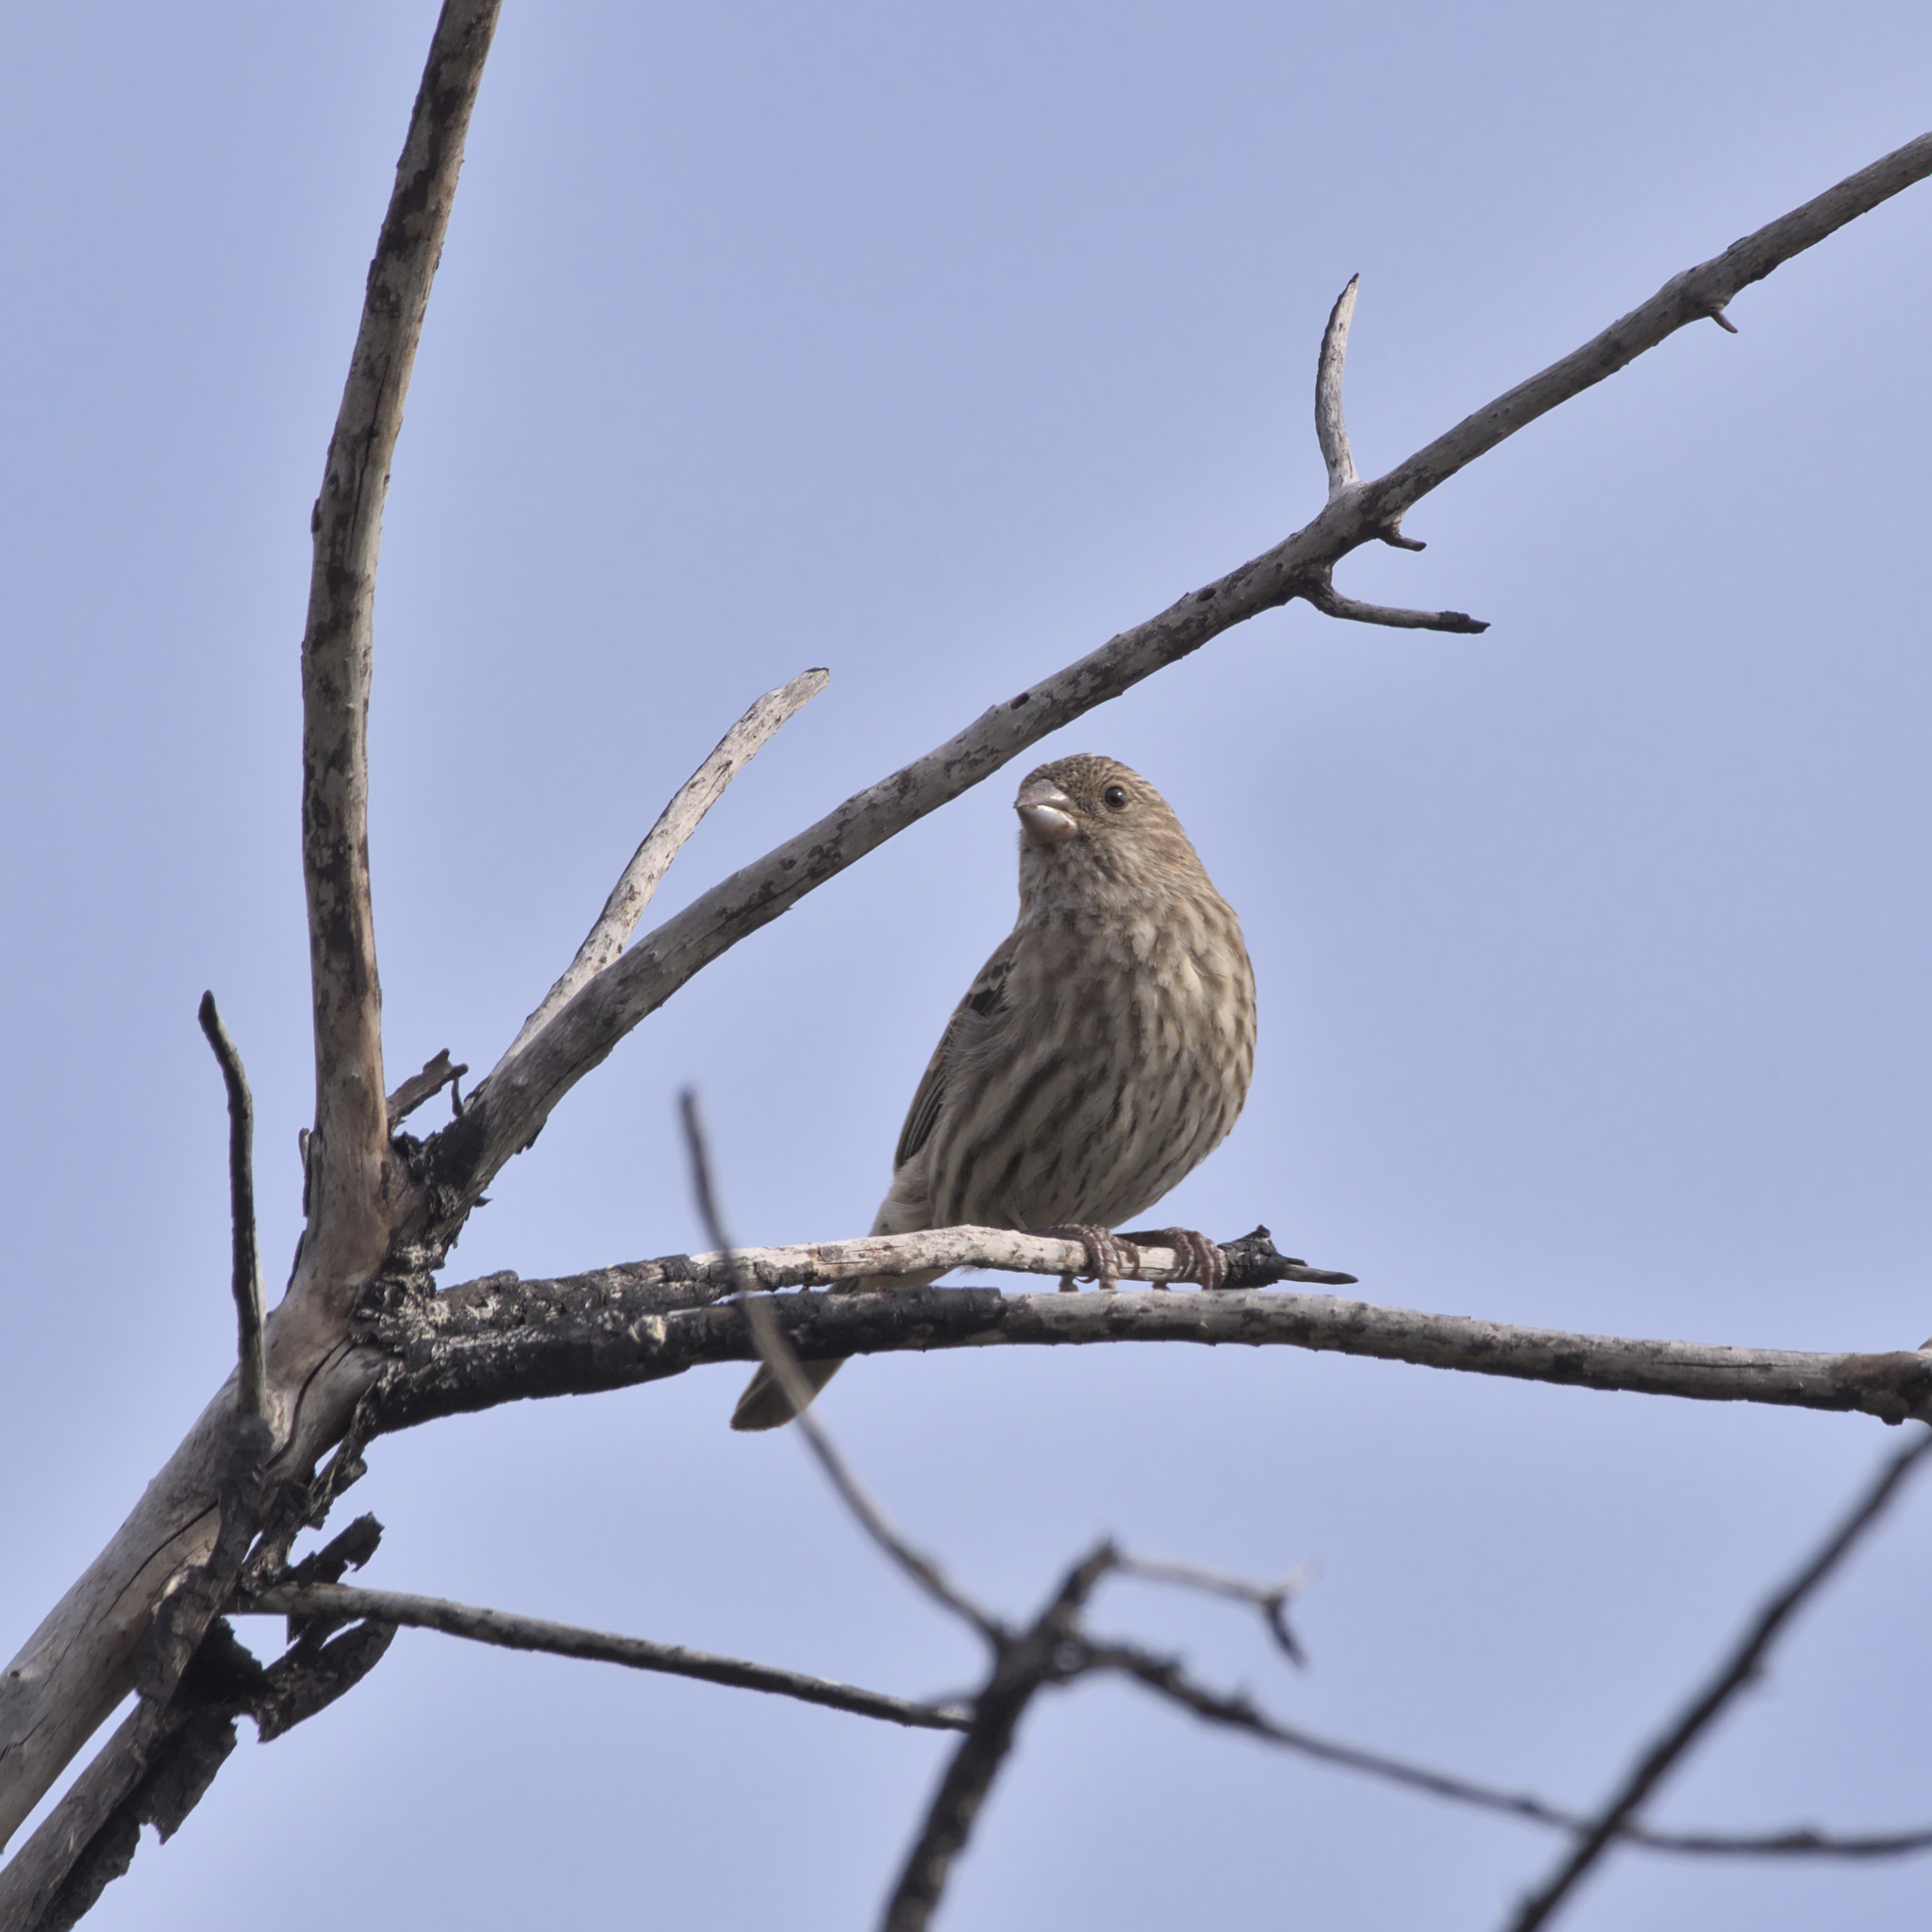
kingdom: Animalia
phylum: Chordata
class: Aves
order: Passeriformes
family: Fringillidae
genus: Haemorhous
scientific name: Haemorhous mexicanus
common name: House finch
